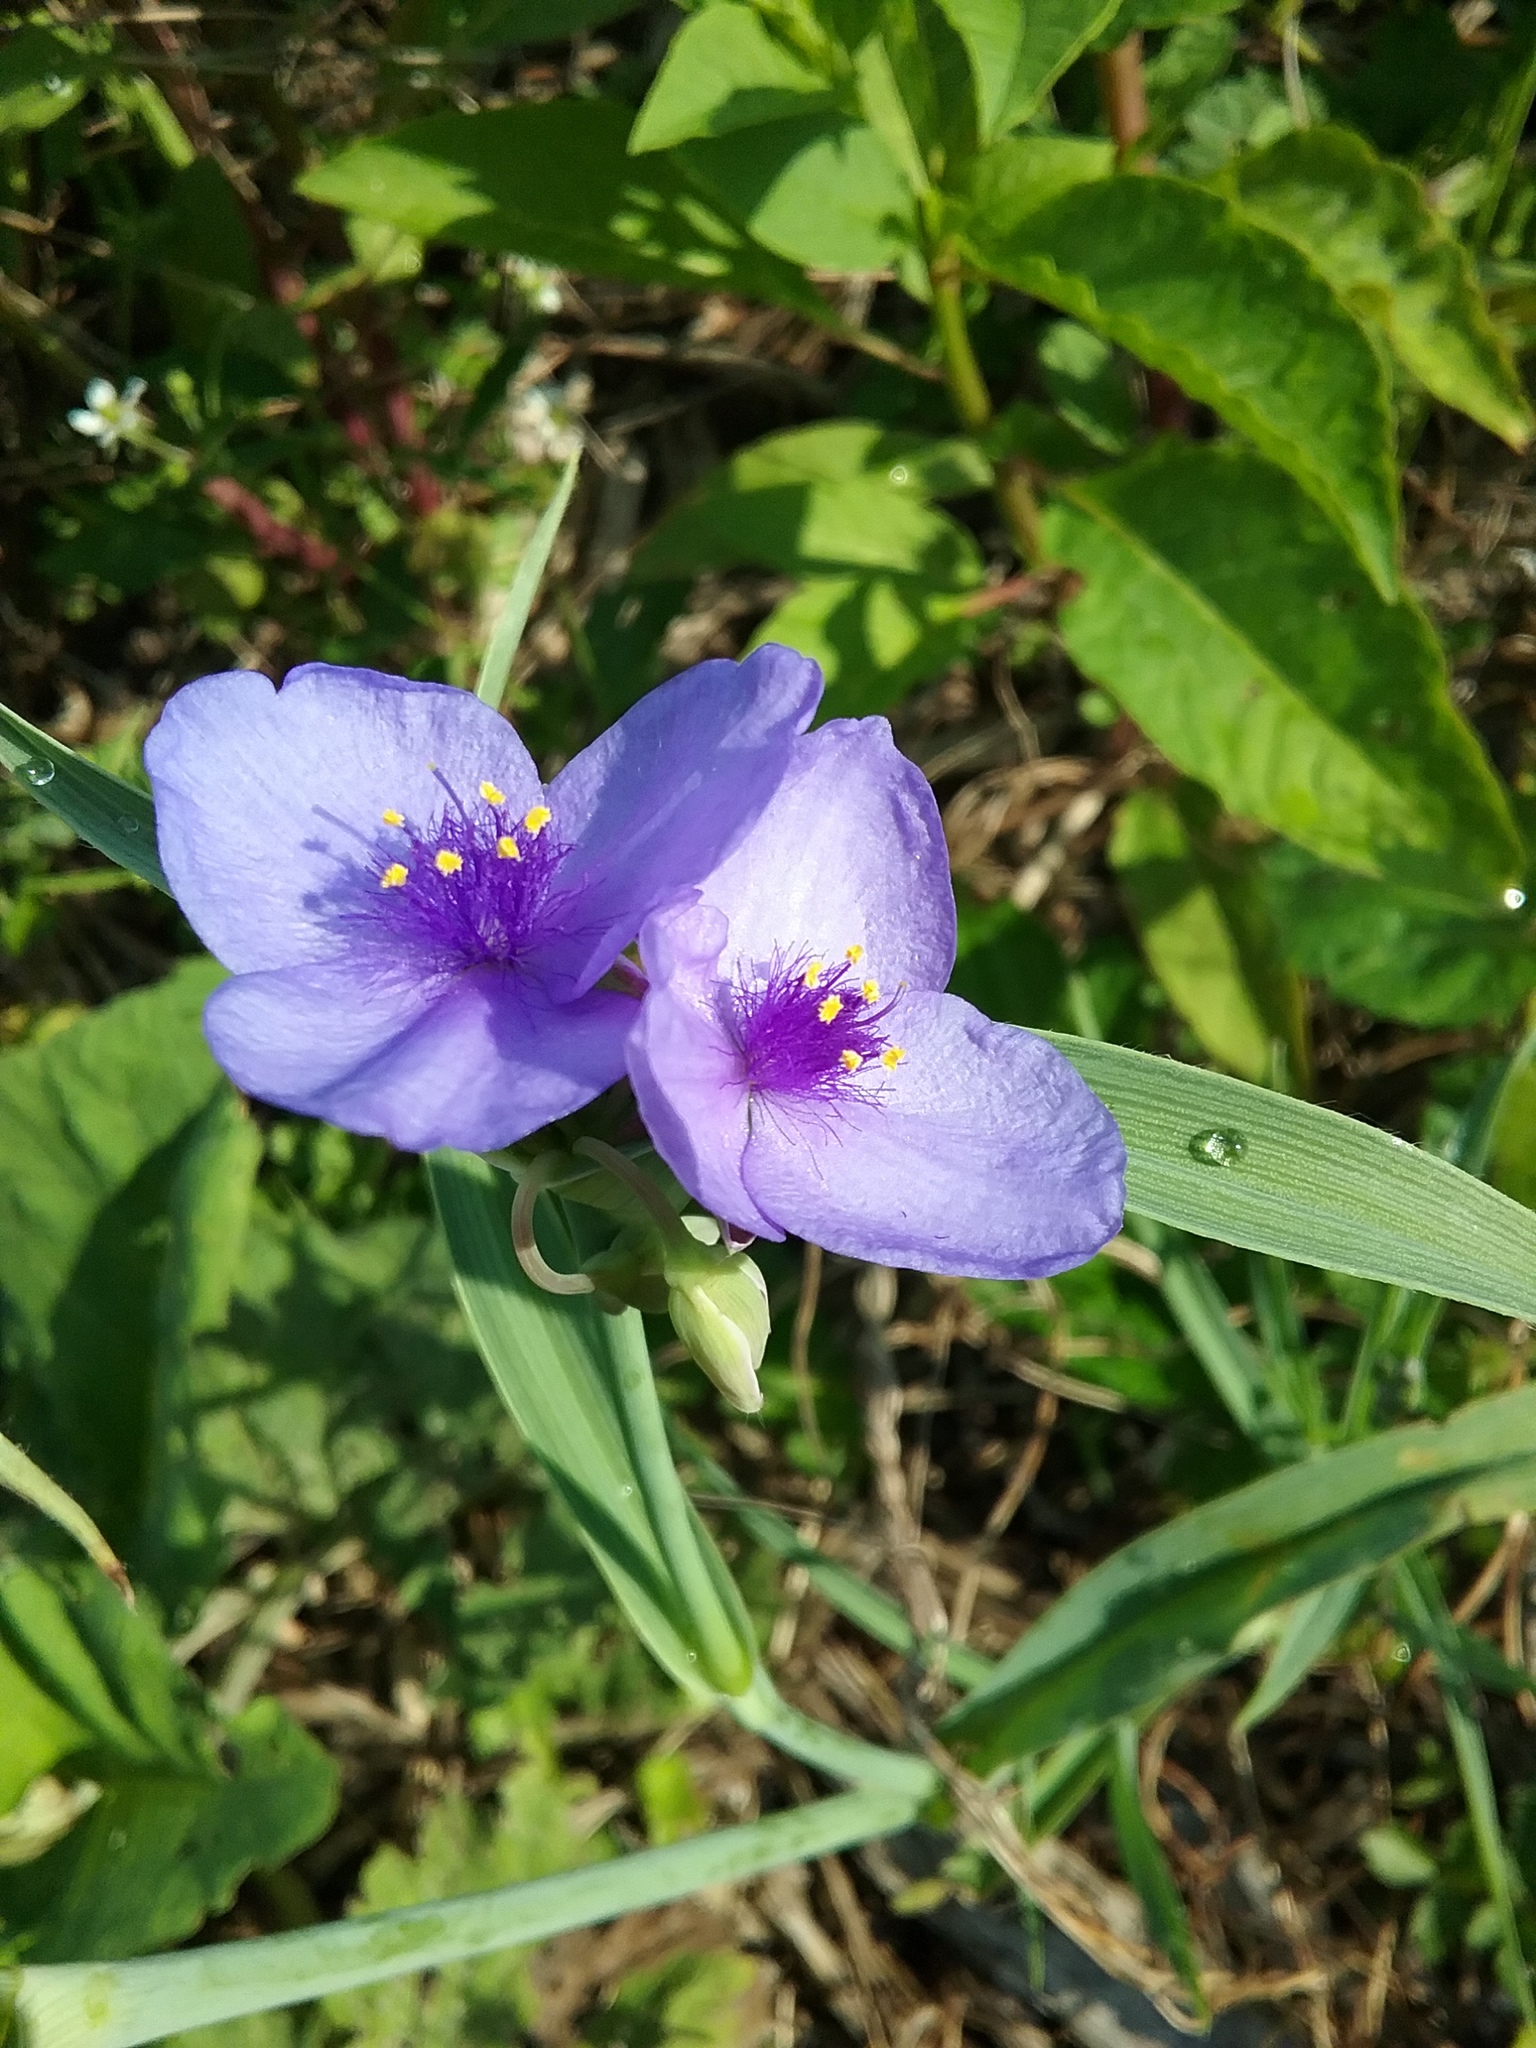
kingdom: Plantae
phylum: Tracheophyta
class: Liliopsida
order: Commelinales
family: Commelinaceae
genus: Tradescantia
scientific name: Tradescantia ohiensis
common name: Ohio spiderwort
